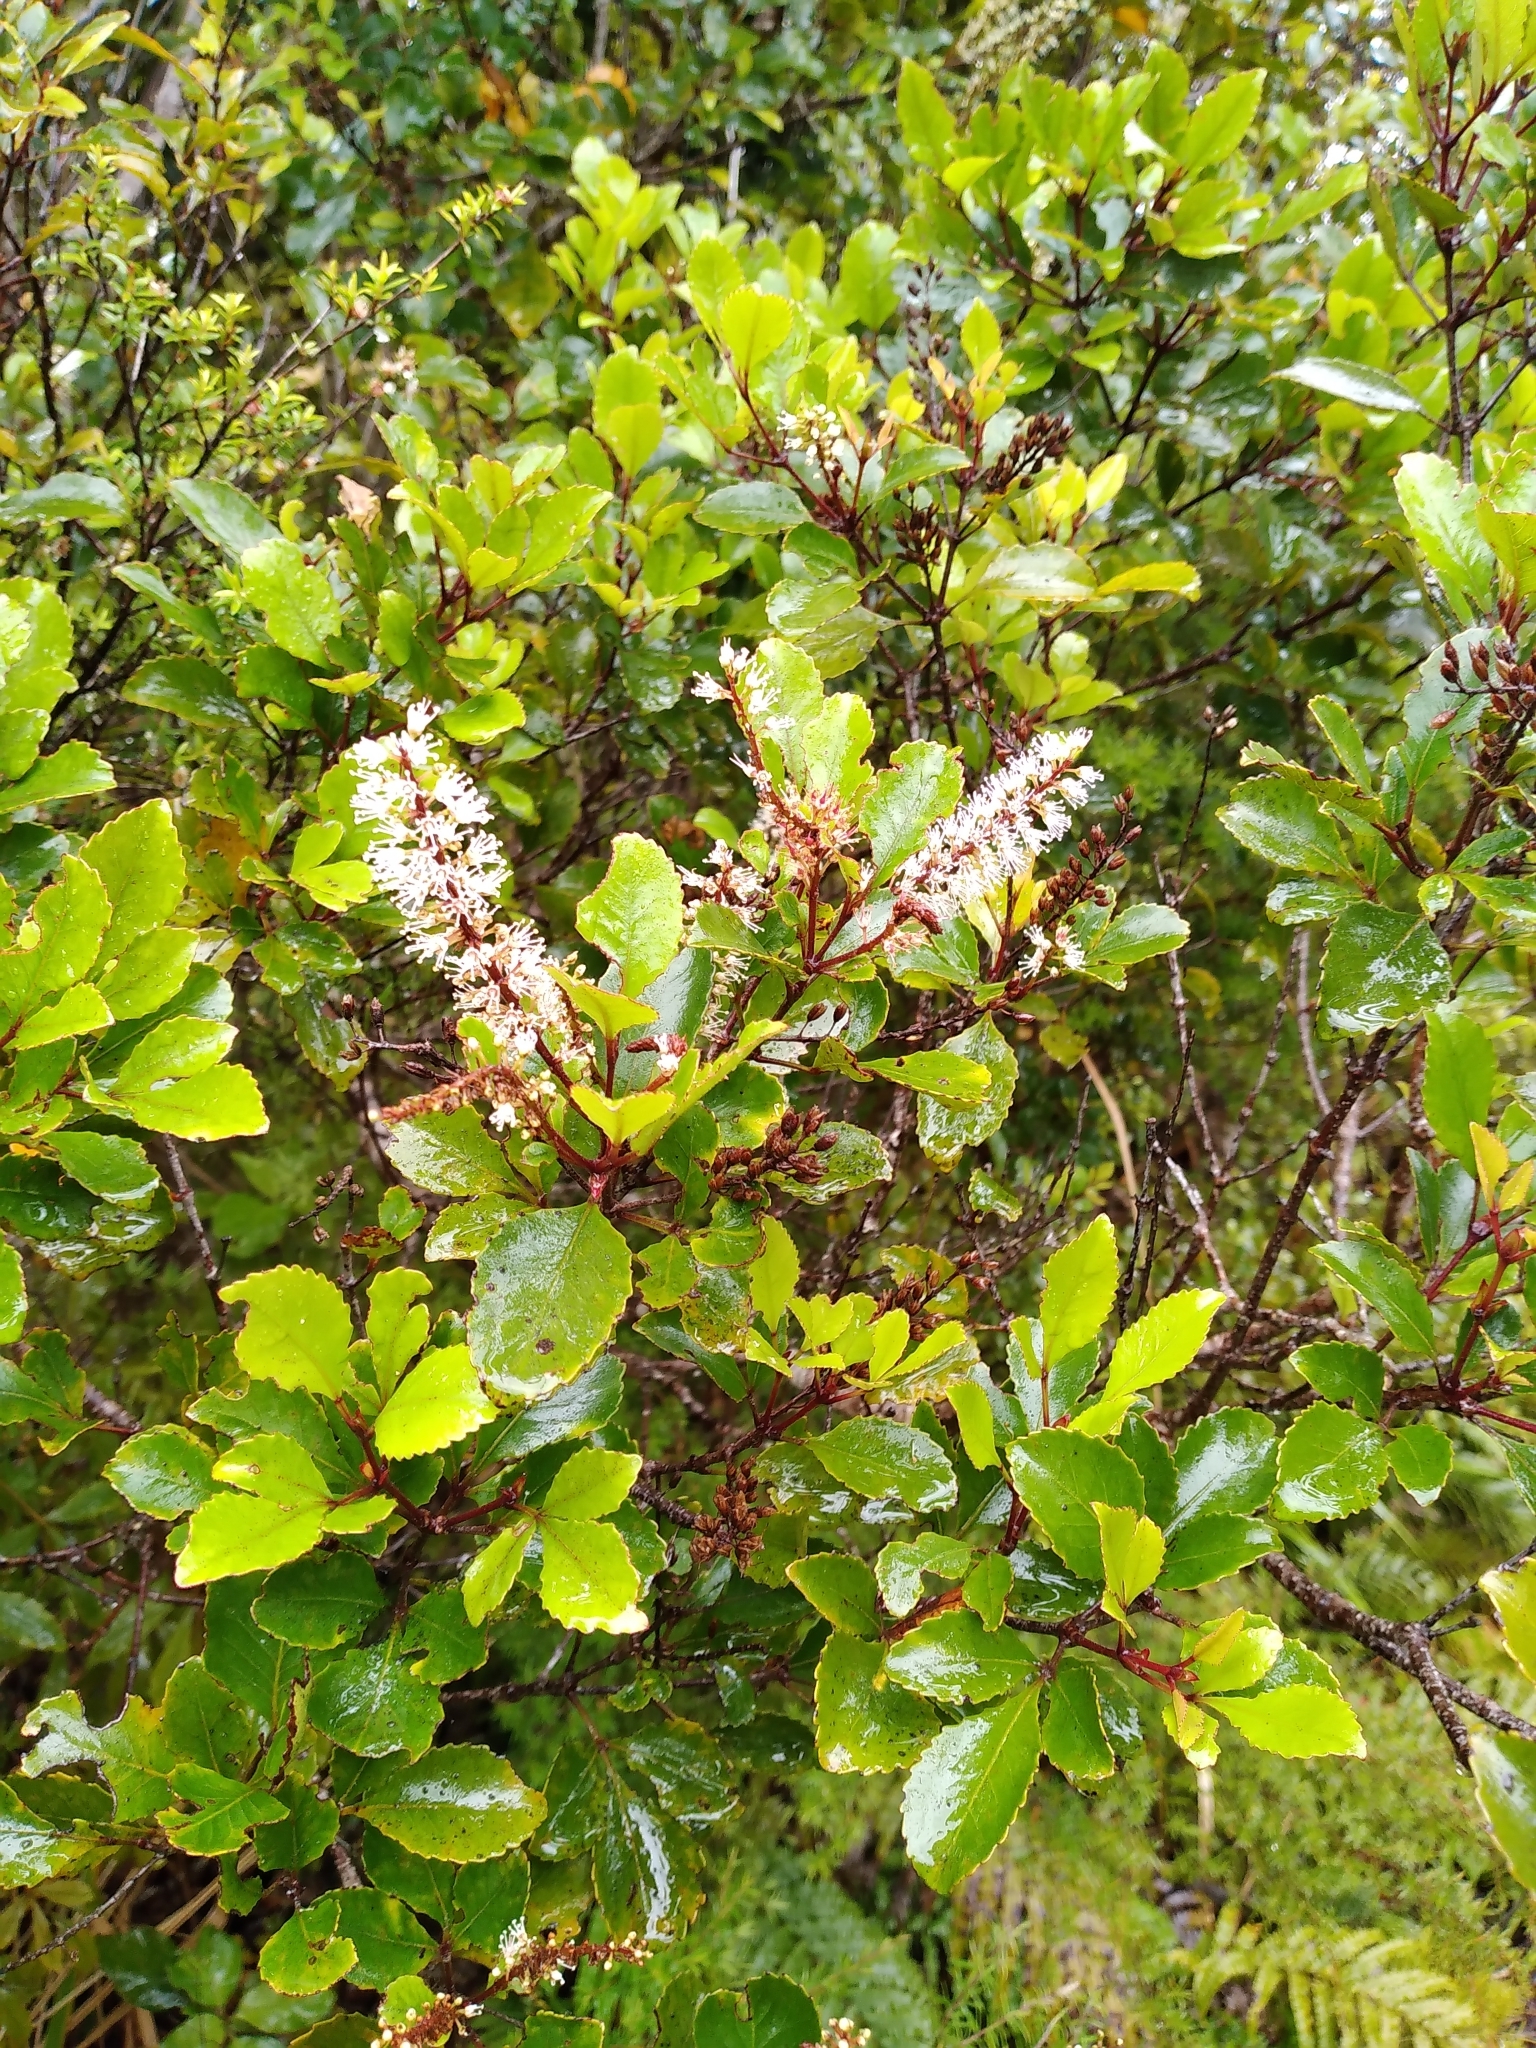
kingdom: Plantae
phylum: Tracheophyta
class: Magnoliopsida
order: Oxalidales
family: Cunoniaceae
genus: Pterophylla
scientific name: Pterophylla sylvicola
